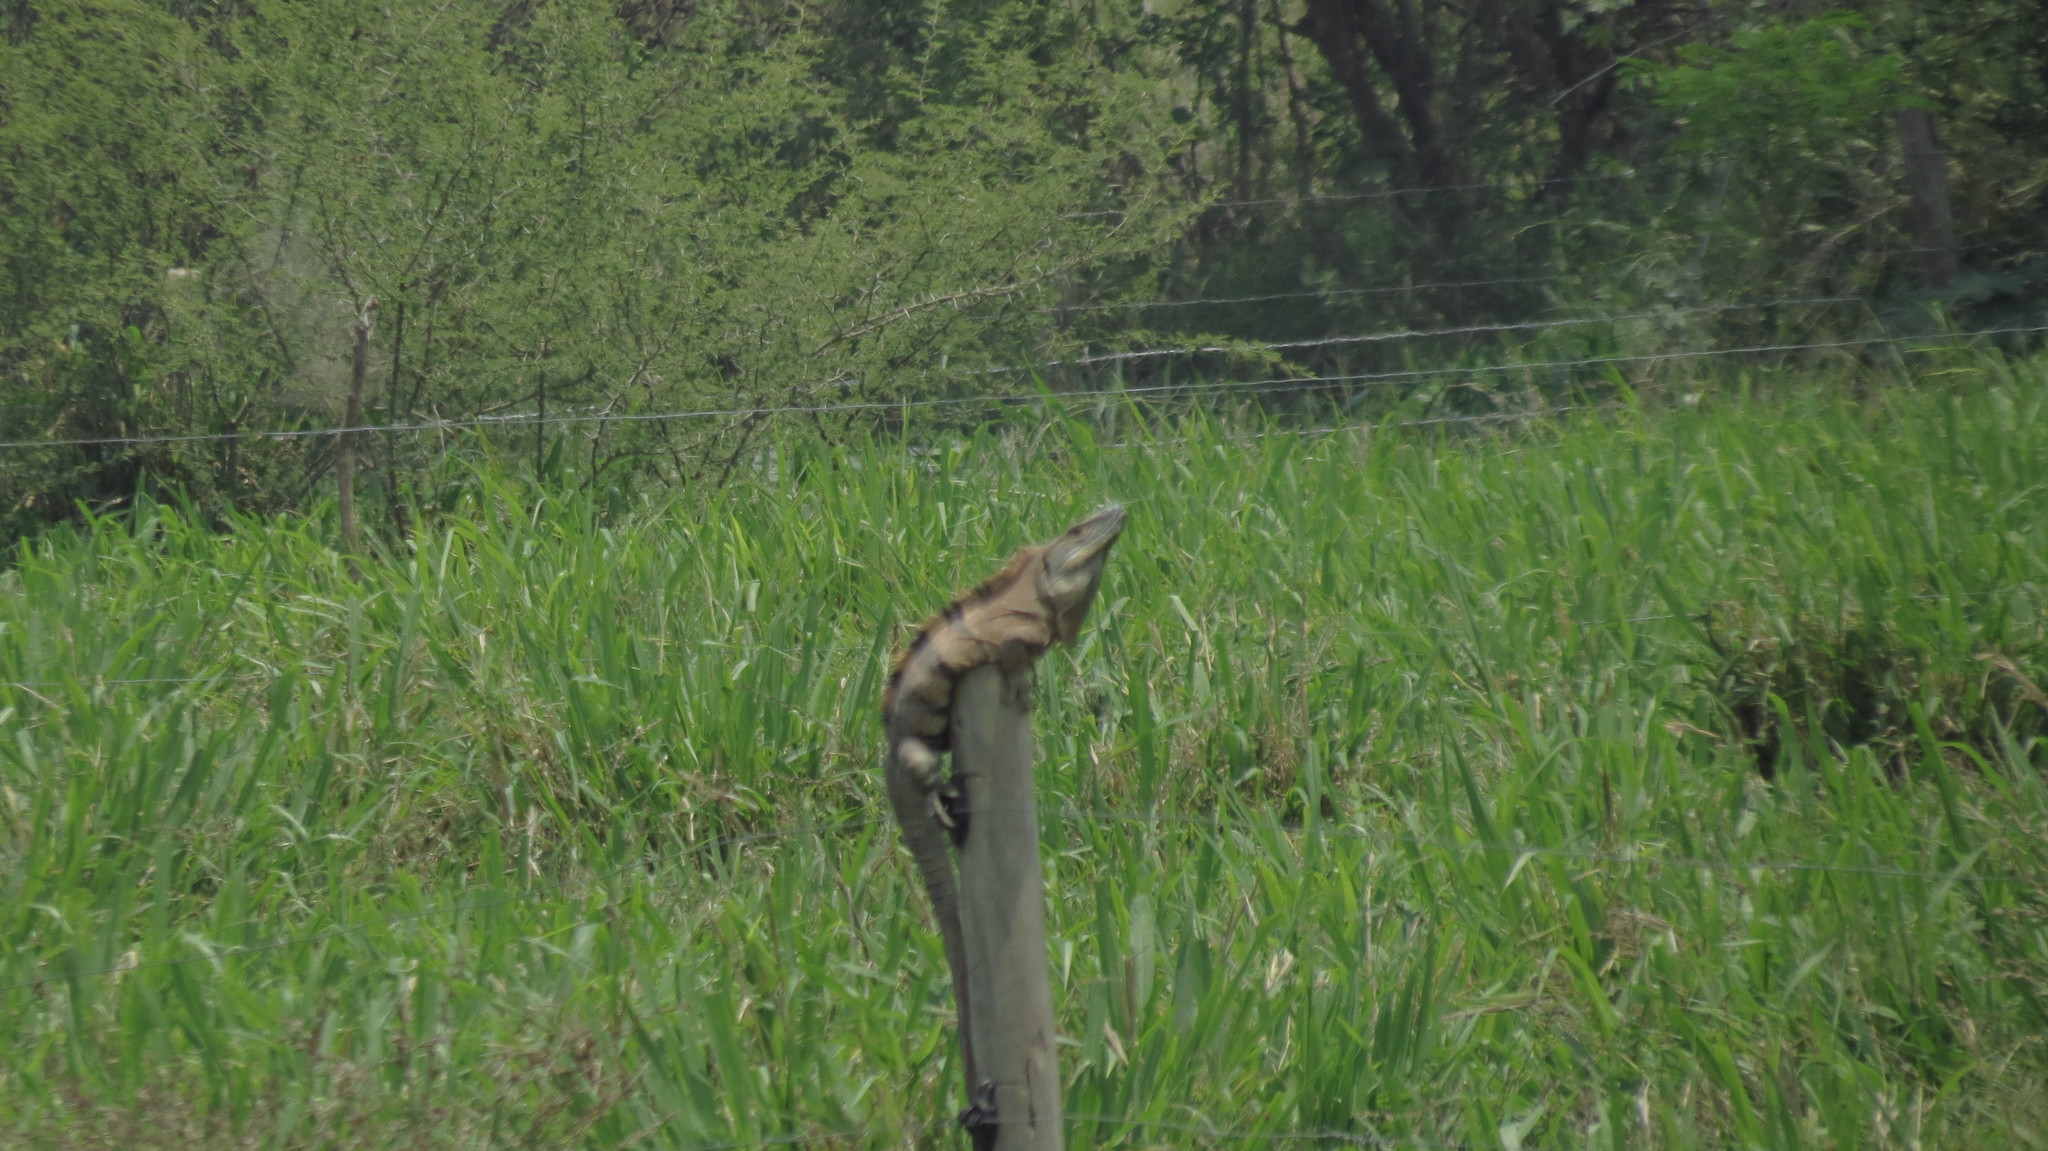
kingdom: Animalia
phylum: Chordata
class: Squamata
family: Iguanidae
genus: Ctenosaura
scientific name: Ctenosaura similis
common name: Black spiny-tailed iguana
